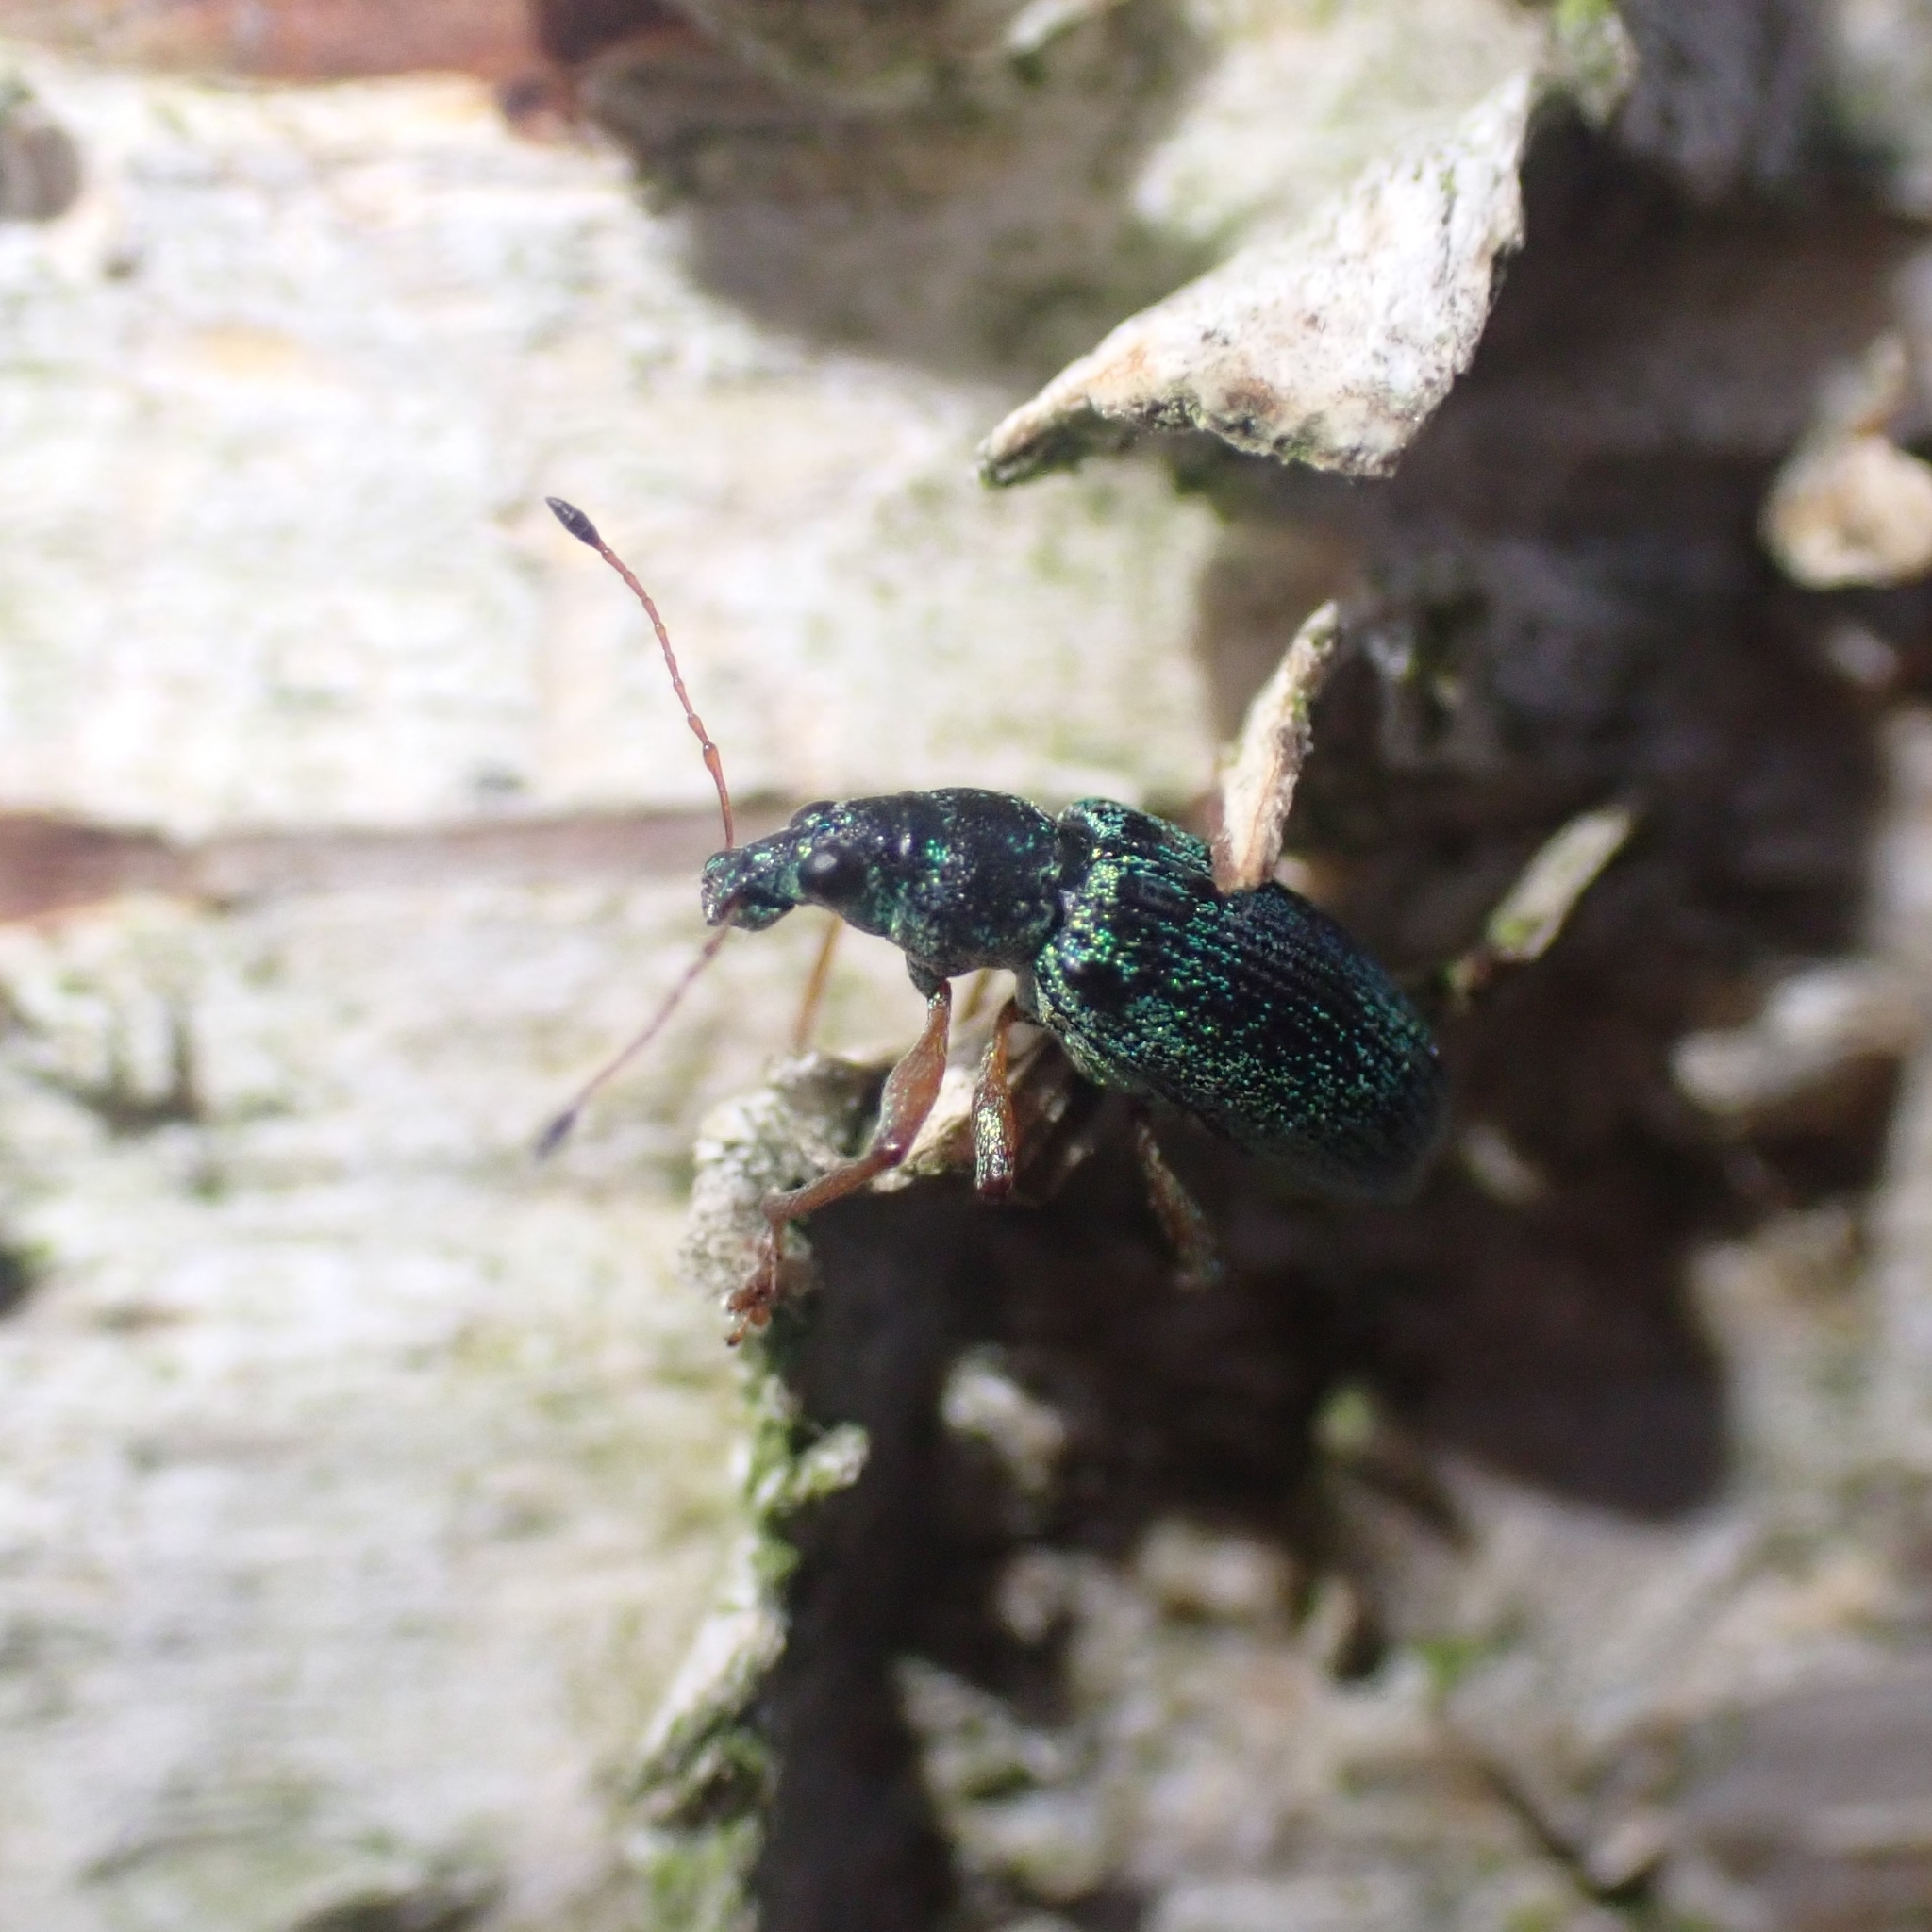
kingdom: Animalia
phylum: Arthropoda
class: Insecta
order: Coleoptera
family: Curculionidae
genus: Polydrusus
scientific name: Polydrusus formosus
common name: Weevil
